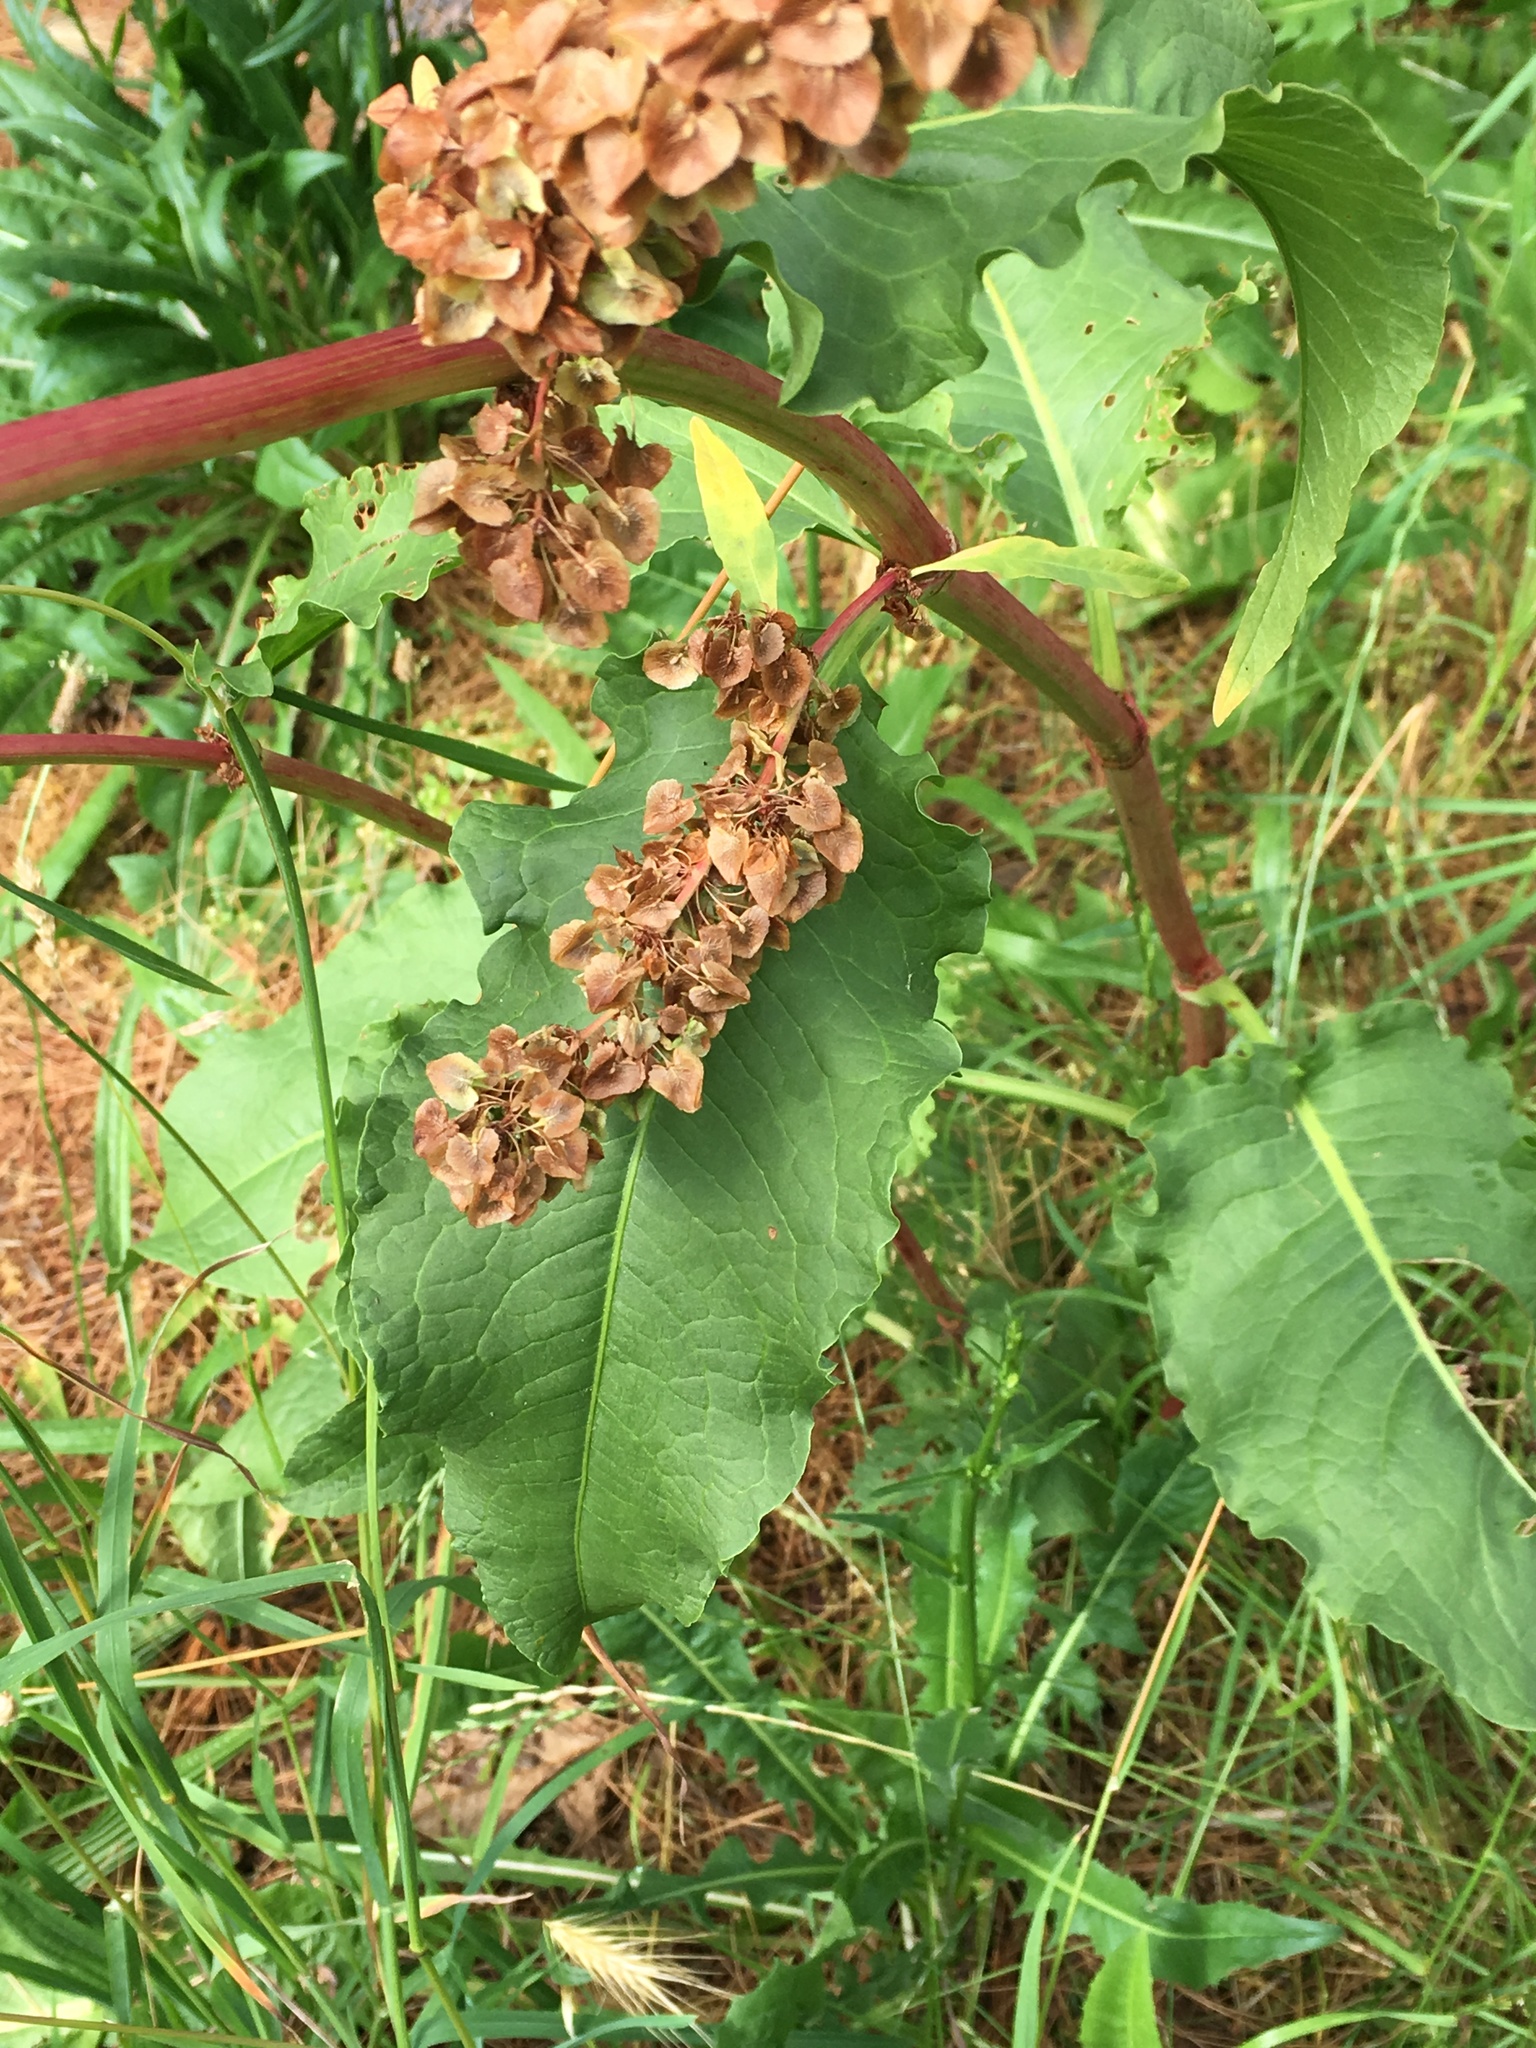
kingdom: Plantae
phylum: Tracheophyta
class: Magnoliopsida
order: Caryophyllales
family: Polygonaceae
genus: Rumex
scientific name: Rumex confusus
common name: Dock
